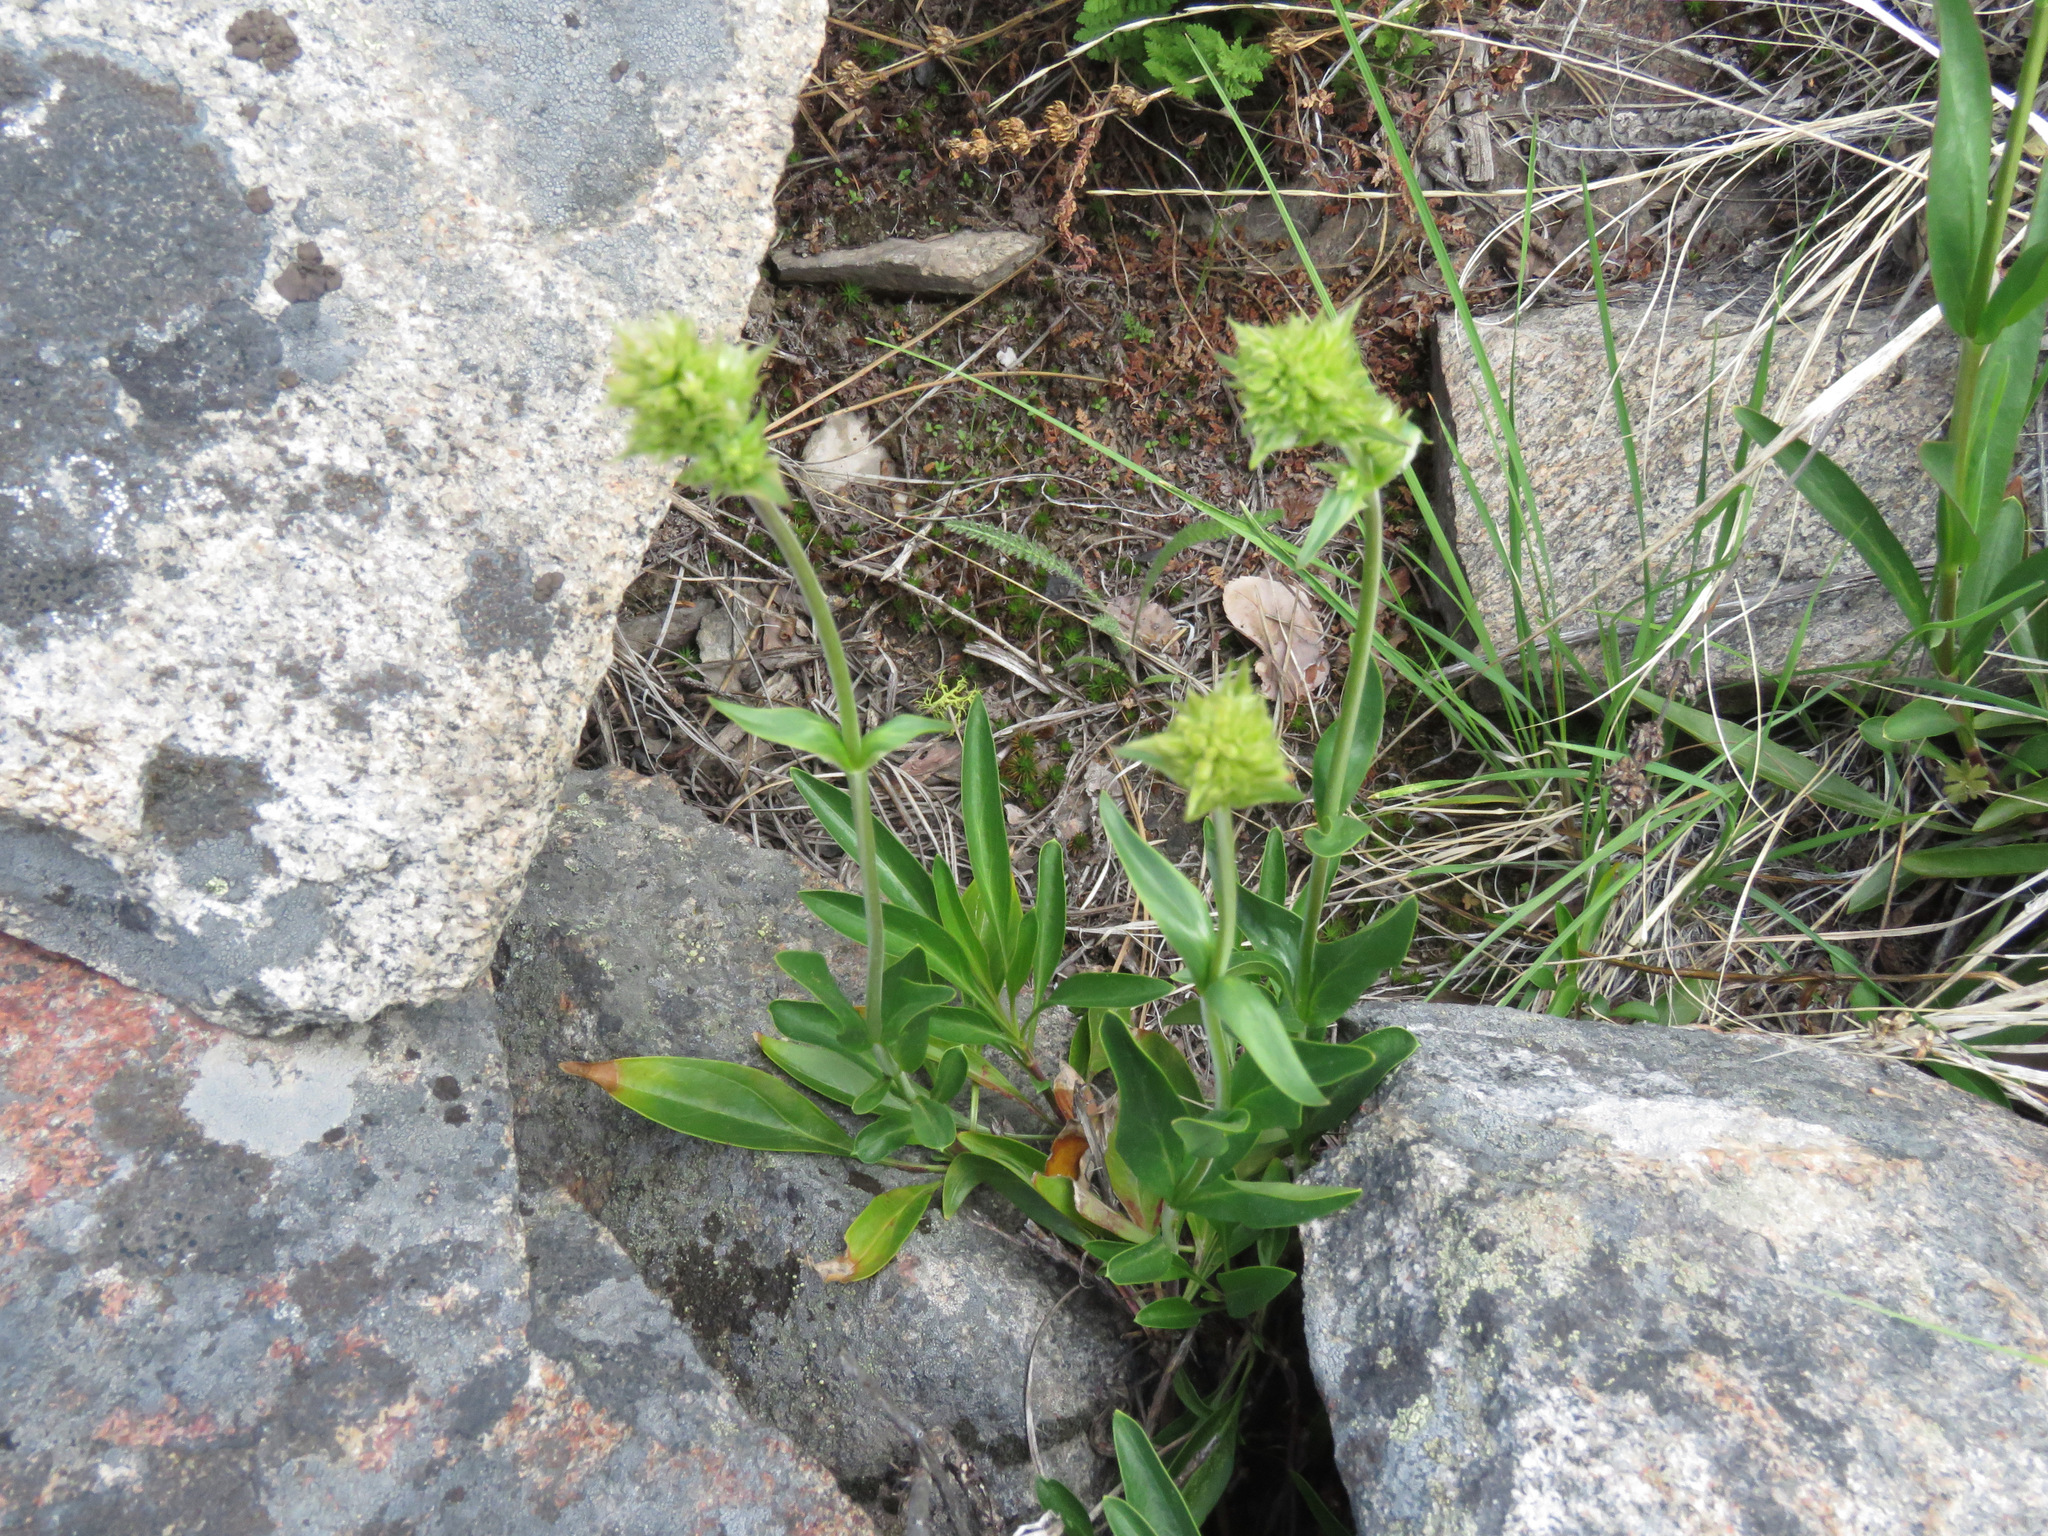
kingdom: Plantae
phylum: Tracheophyta
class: Magnoliopsida
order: Lamiales
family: Plantaginaceae
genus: Penstemon
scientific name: Penstemon confertus
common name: Lesser yellow beardtongue
